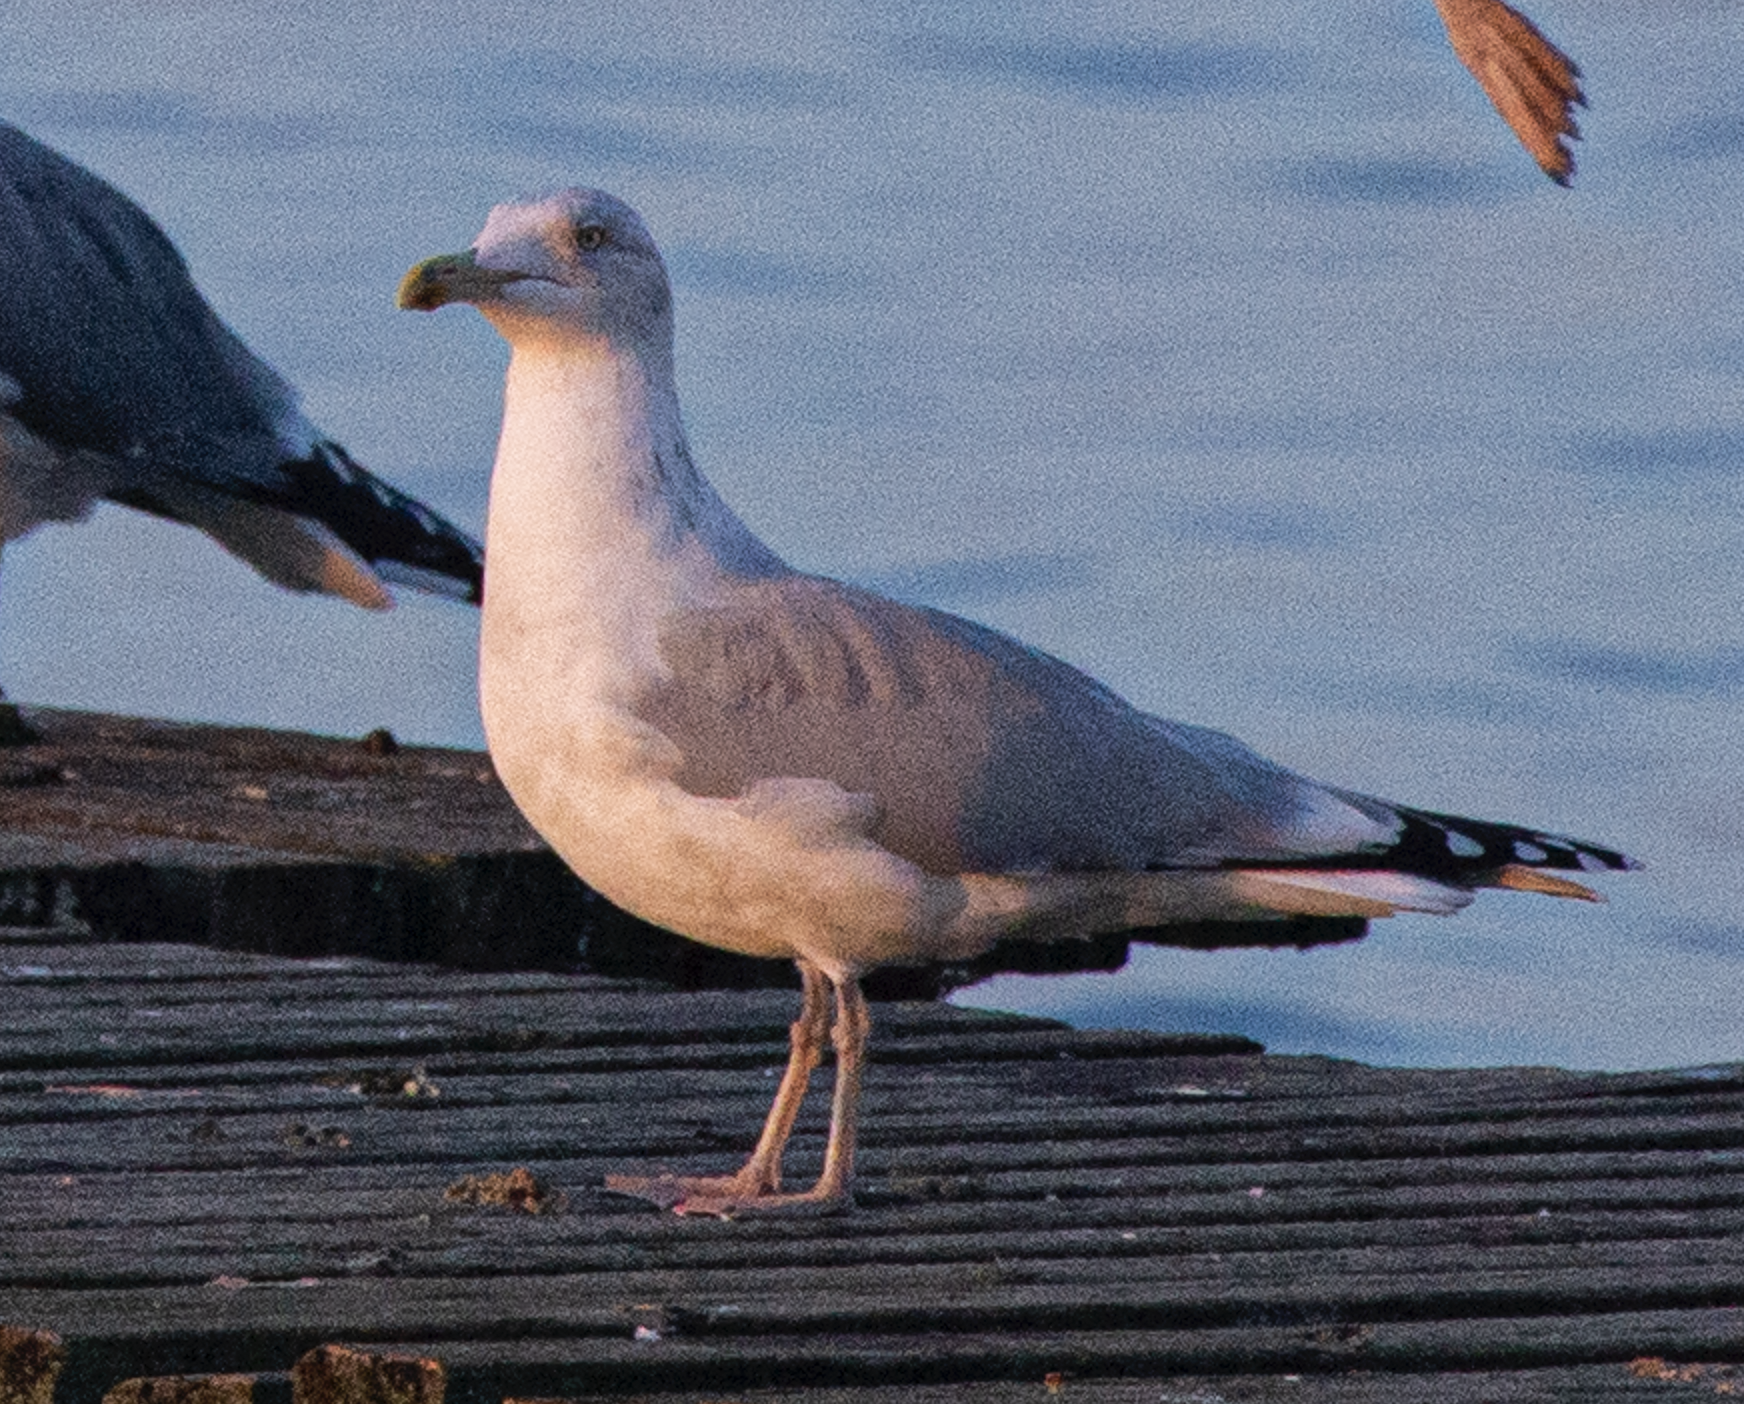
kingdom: Animalia
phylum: Chordata
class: Aves
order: Charadriiformes
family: Laridae
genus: Larus
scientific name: Larus argentatus
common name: Herring gull
